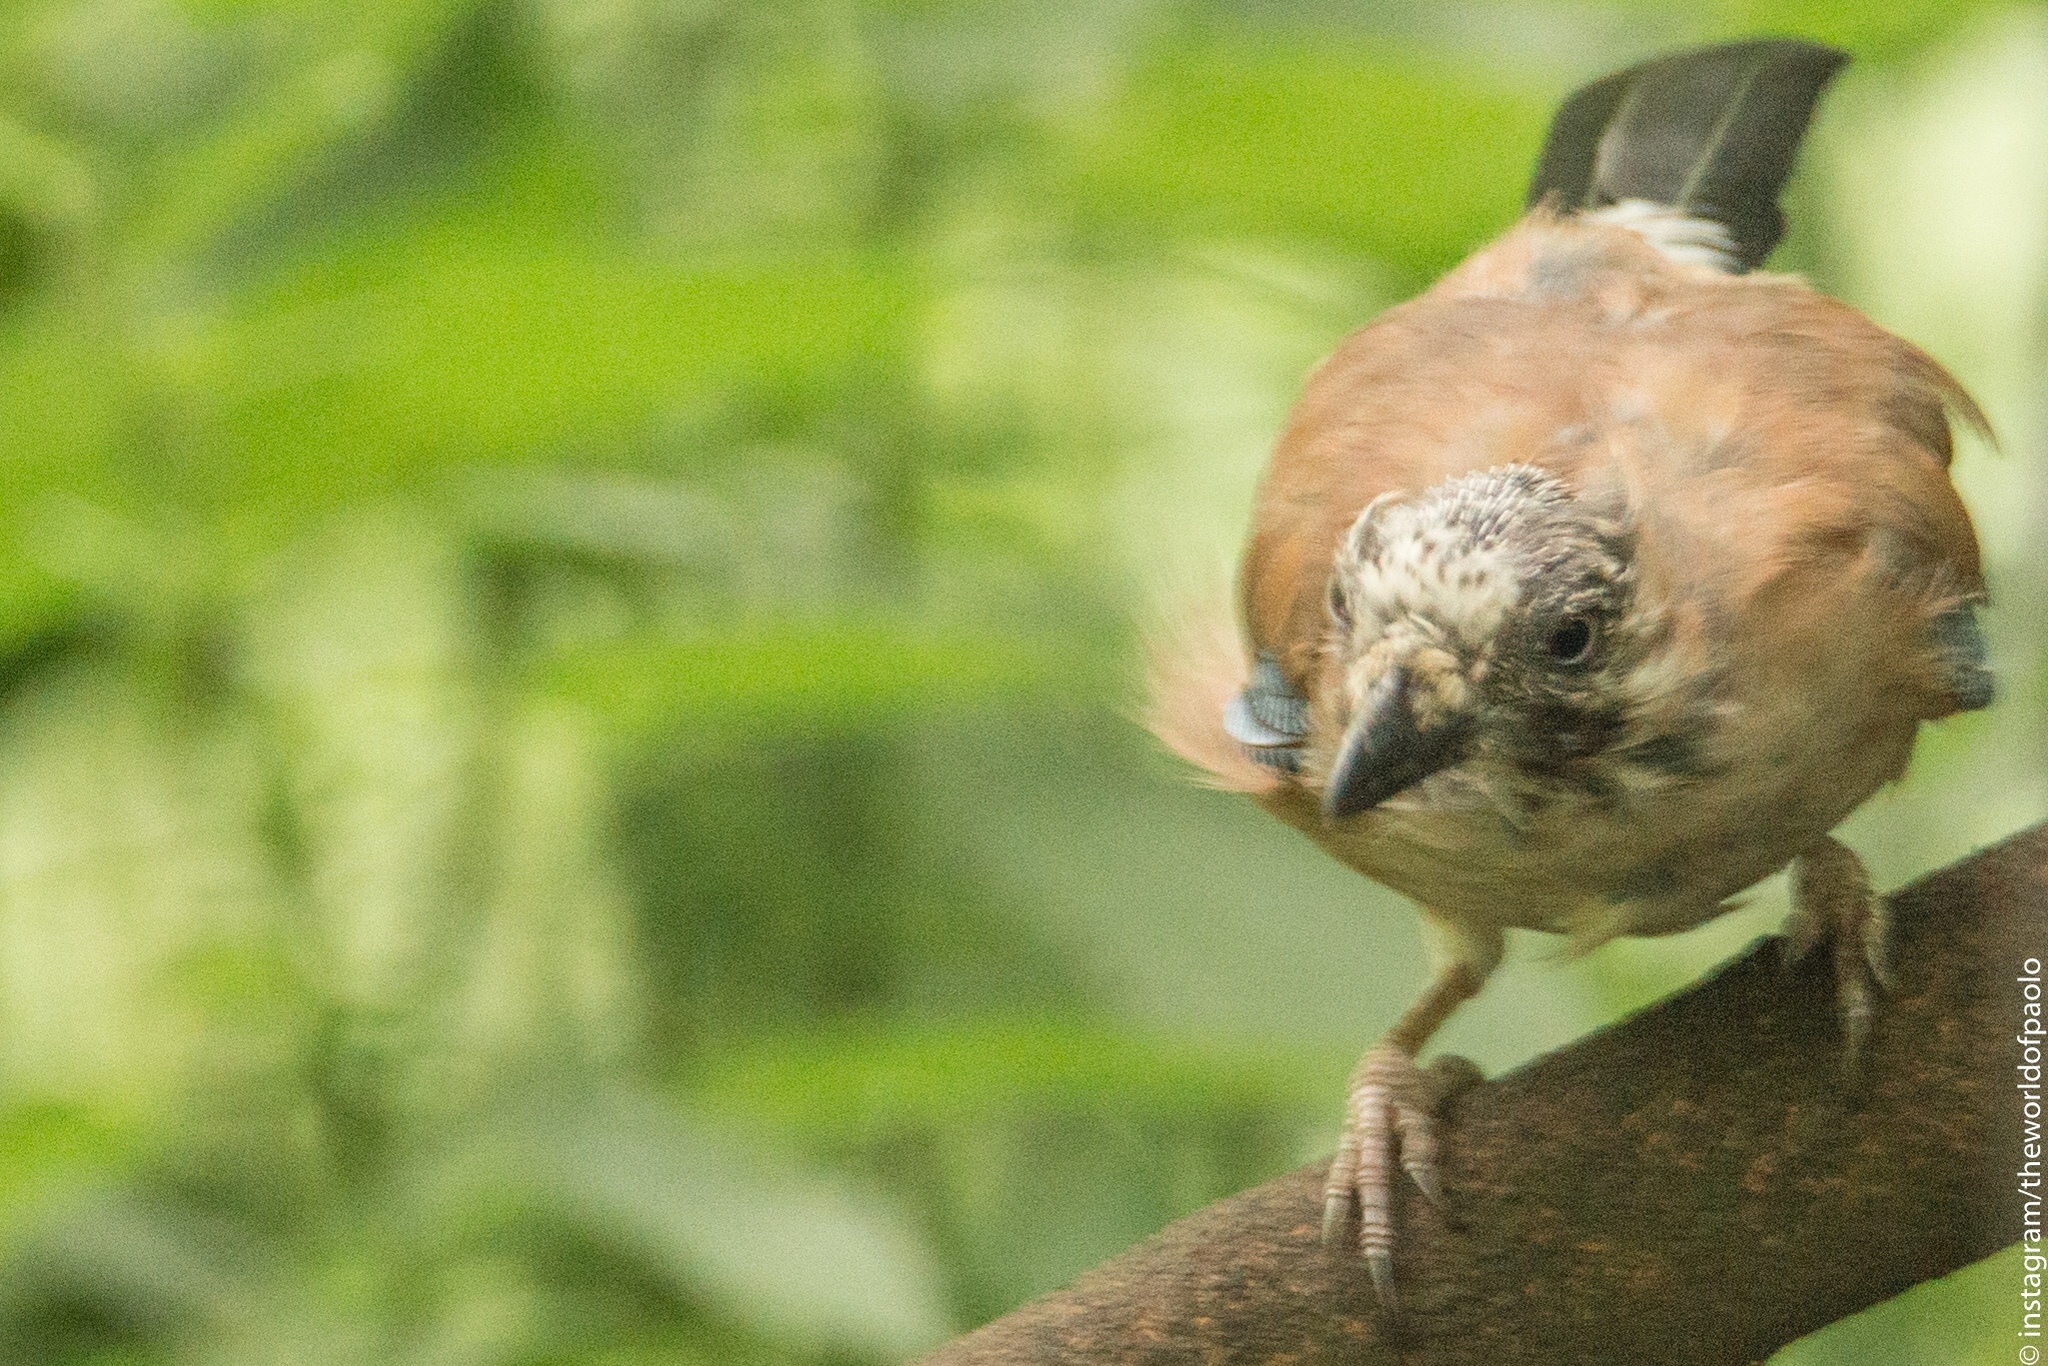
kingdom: Animalia
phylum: Chordata
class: Aves
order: Passeriformes
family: Corvidae
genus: Garrulus
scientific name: Garrulus glandarius
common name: Eurasian jay
